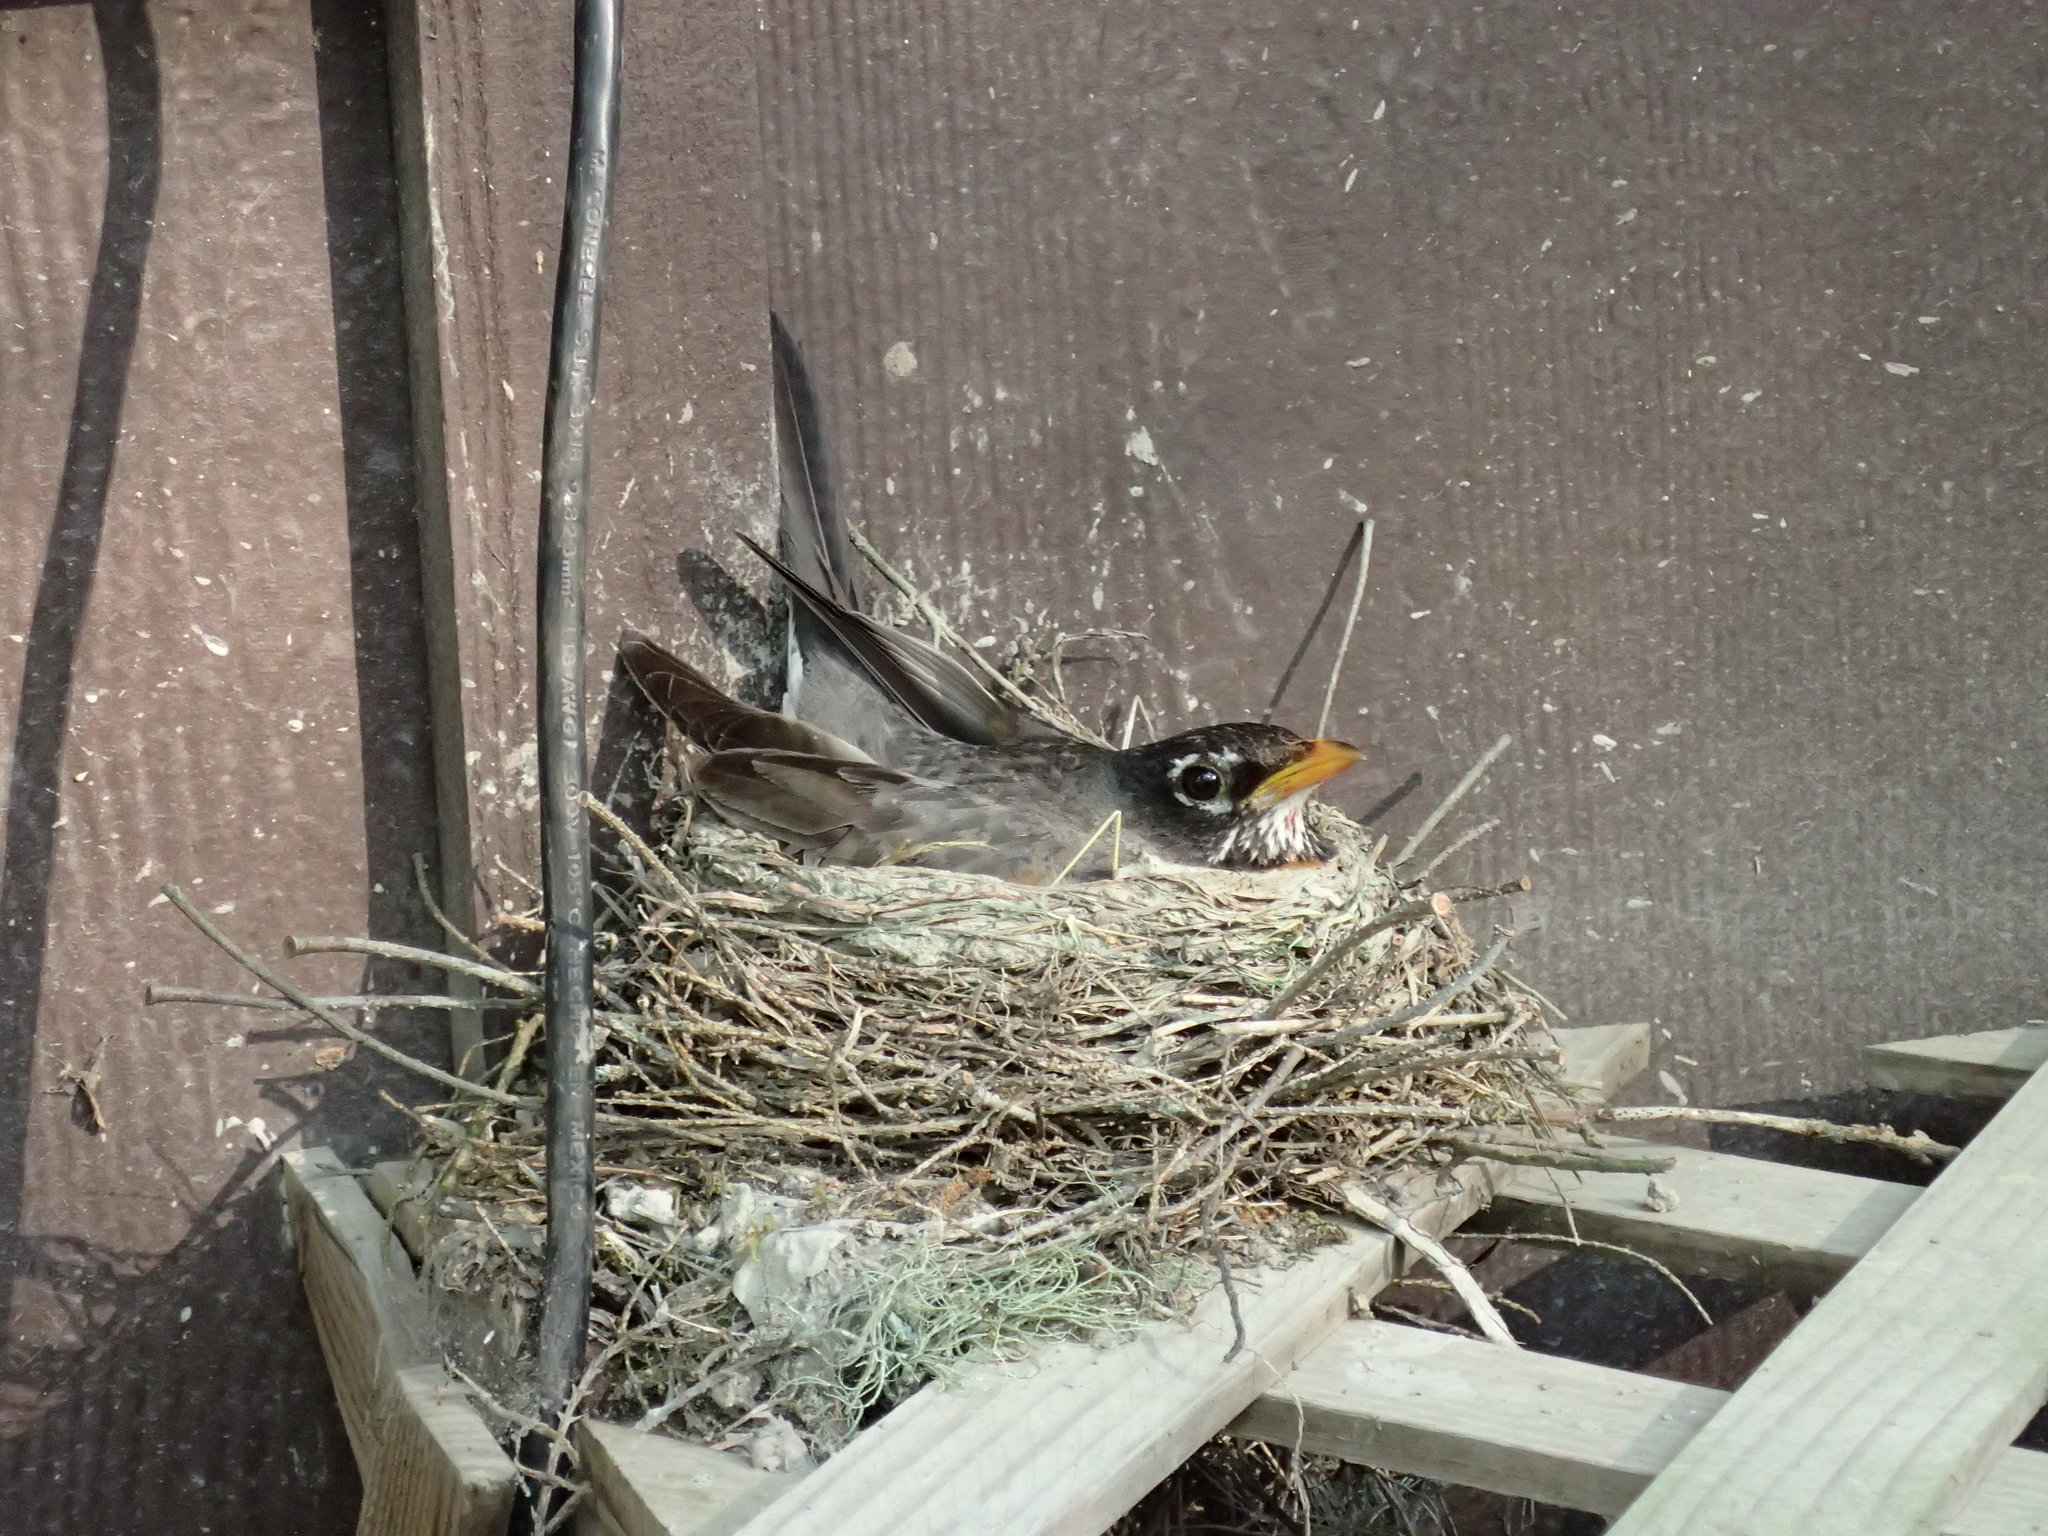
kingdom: Animalia
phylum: Chordata
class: Aves
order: Passeriformes
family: Turdidae
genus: Turdus
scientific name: Turdus migratorius
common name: American robin
